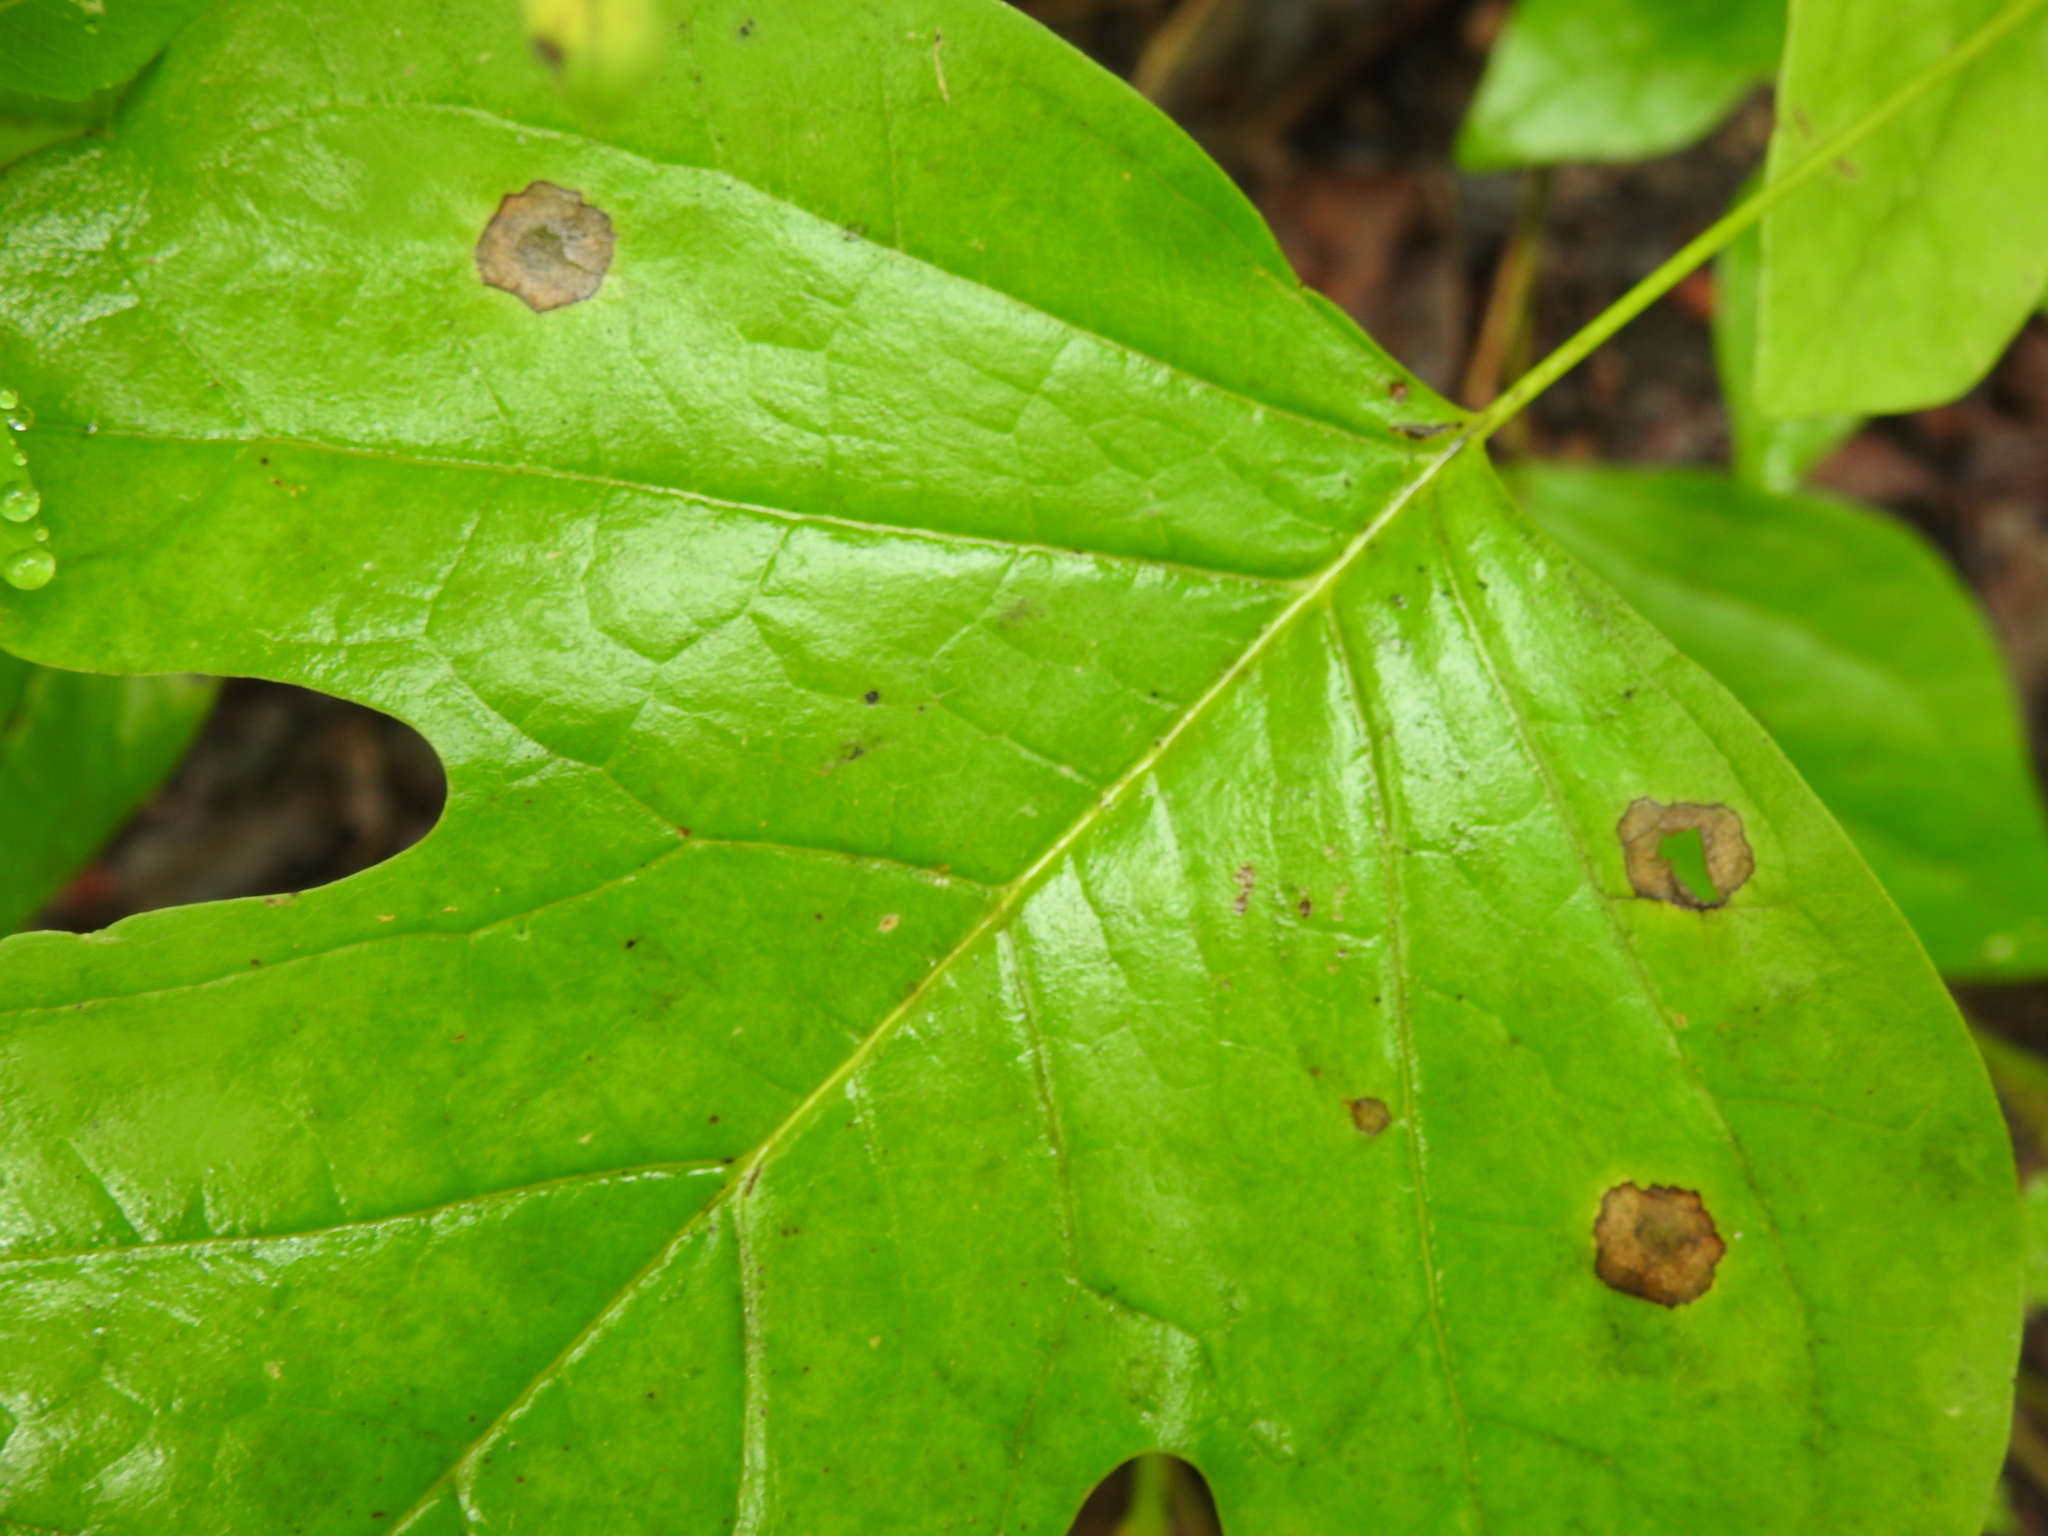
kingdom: Animalia
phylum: Arthropoda
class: Insecta
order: Diptera
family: Cecidomyiidae
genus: Resseliella
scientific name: Resseliella liriodendri
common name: Tulip tree leaf spot gall midge
